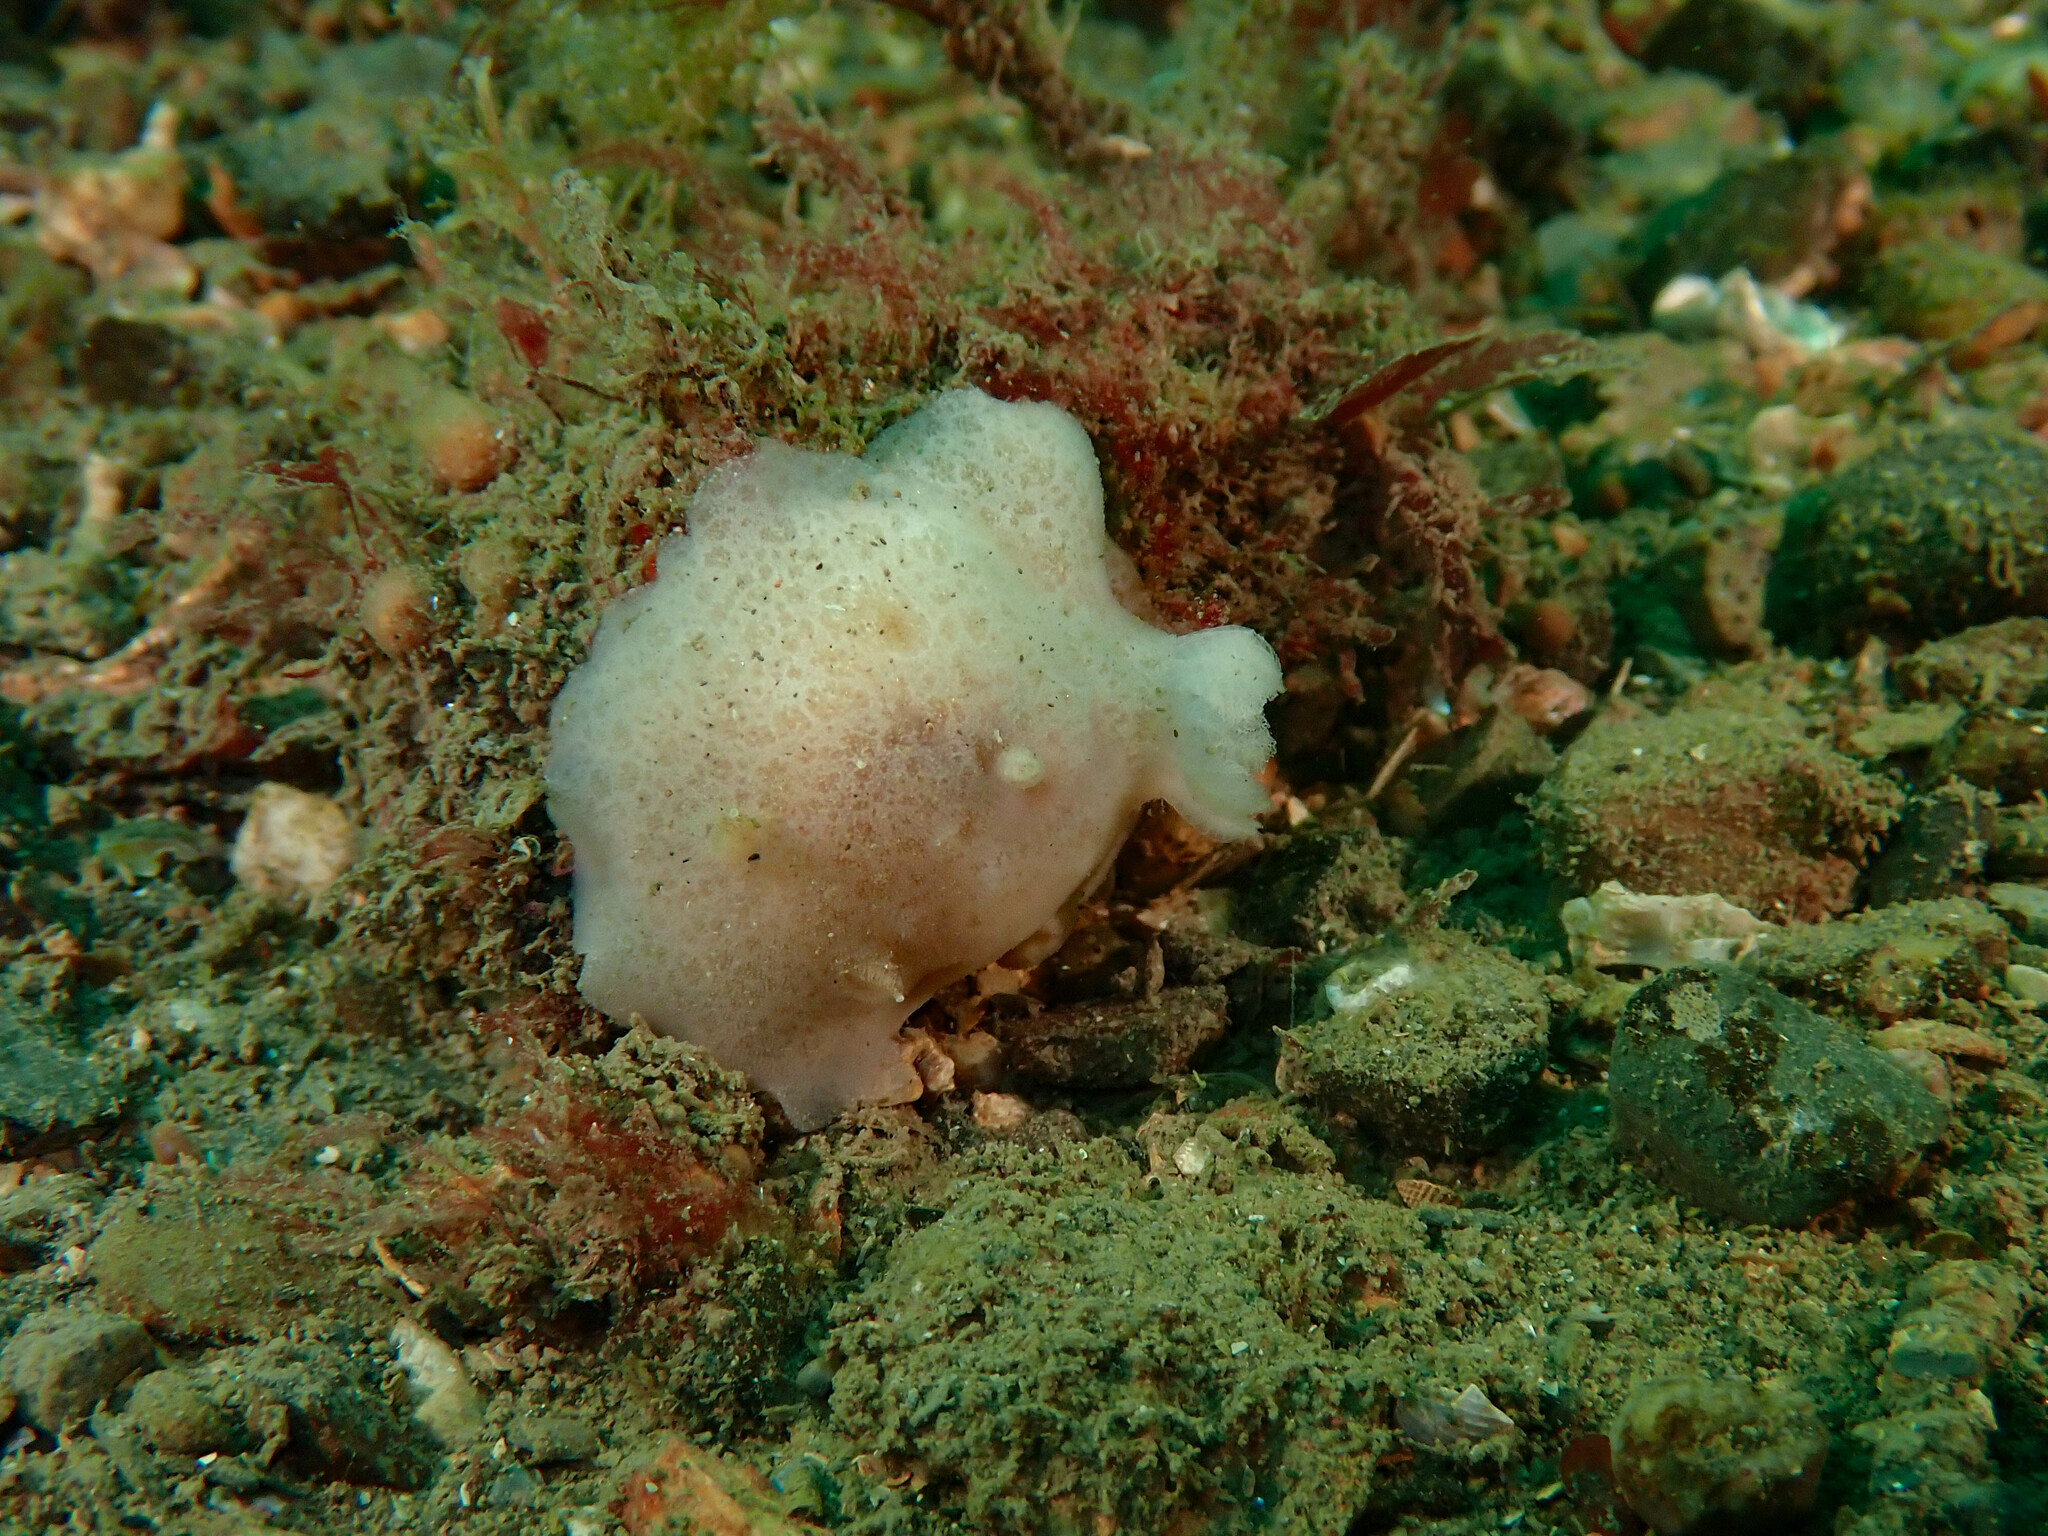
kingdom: Animalia
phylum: Mollusca
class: Gastropoda
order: Nudibranchia
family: Discodorididae
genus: Jorunna
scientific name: Jorunna tomentosa
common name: Grey sea slug
